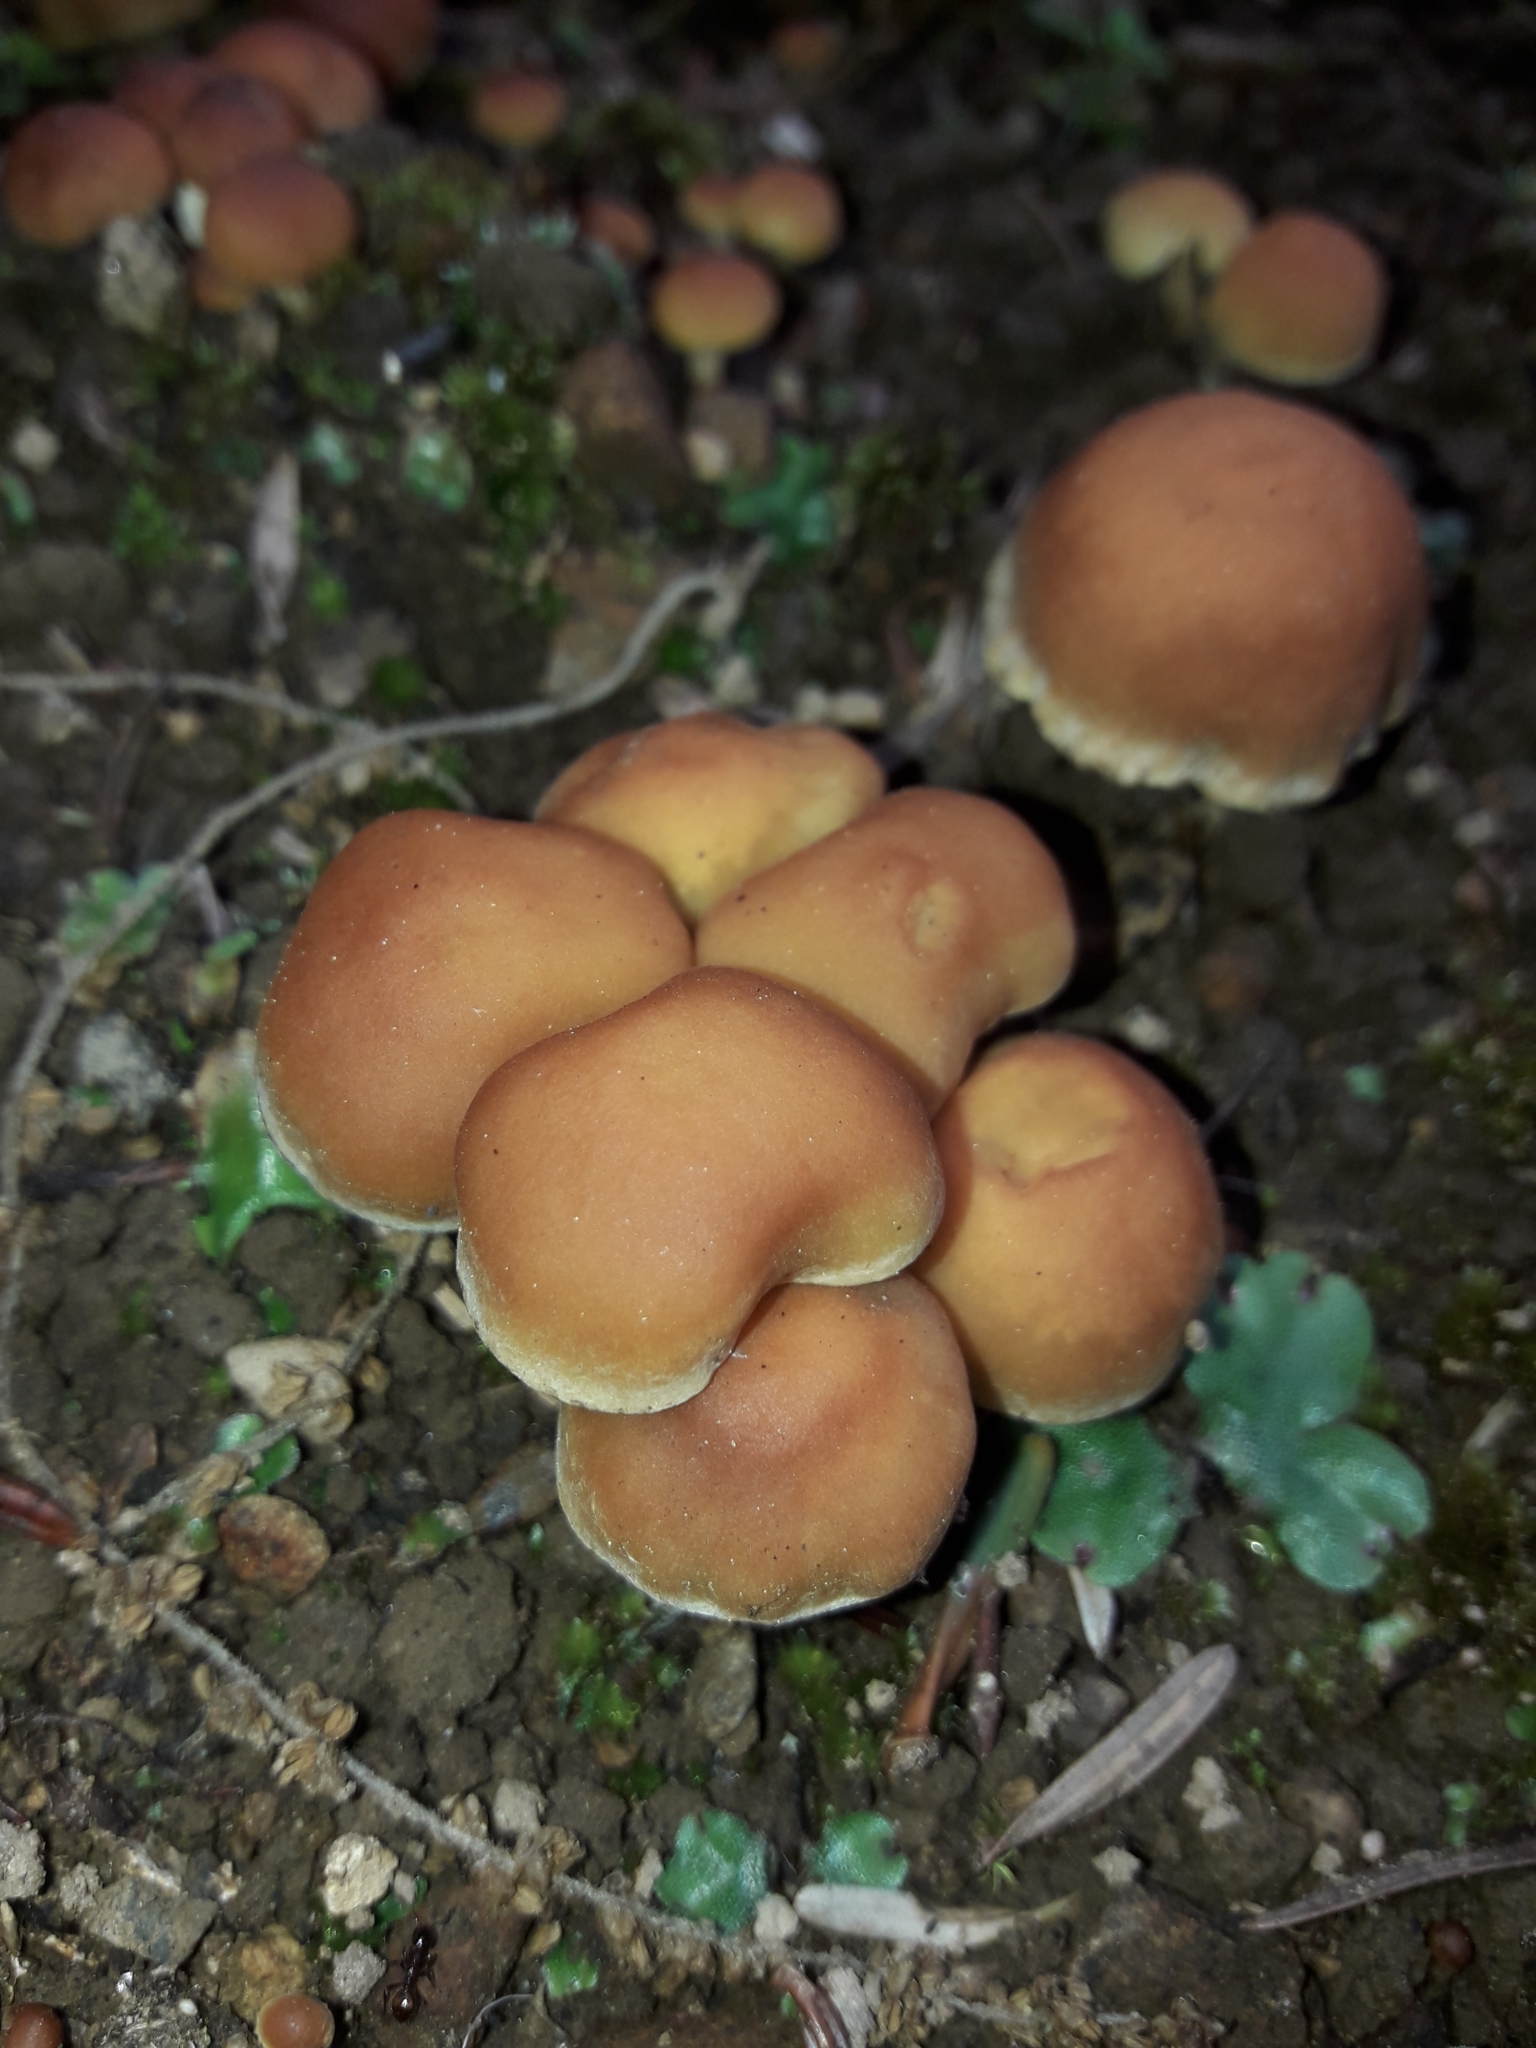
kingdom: Fungi
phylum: Basidiomycota
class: Agaricomycetes
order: Agaricales
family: Strophariaceae
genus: Hypholoma
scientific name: Hypholoma australianum
